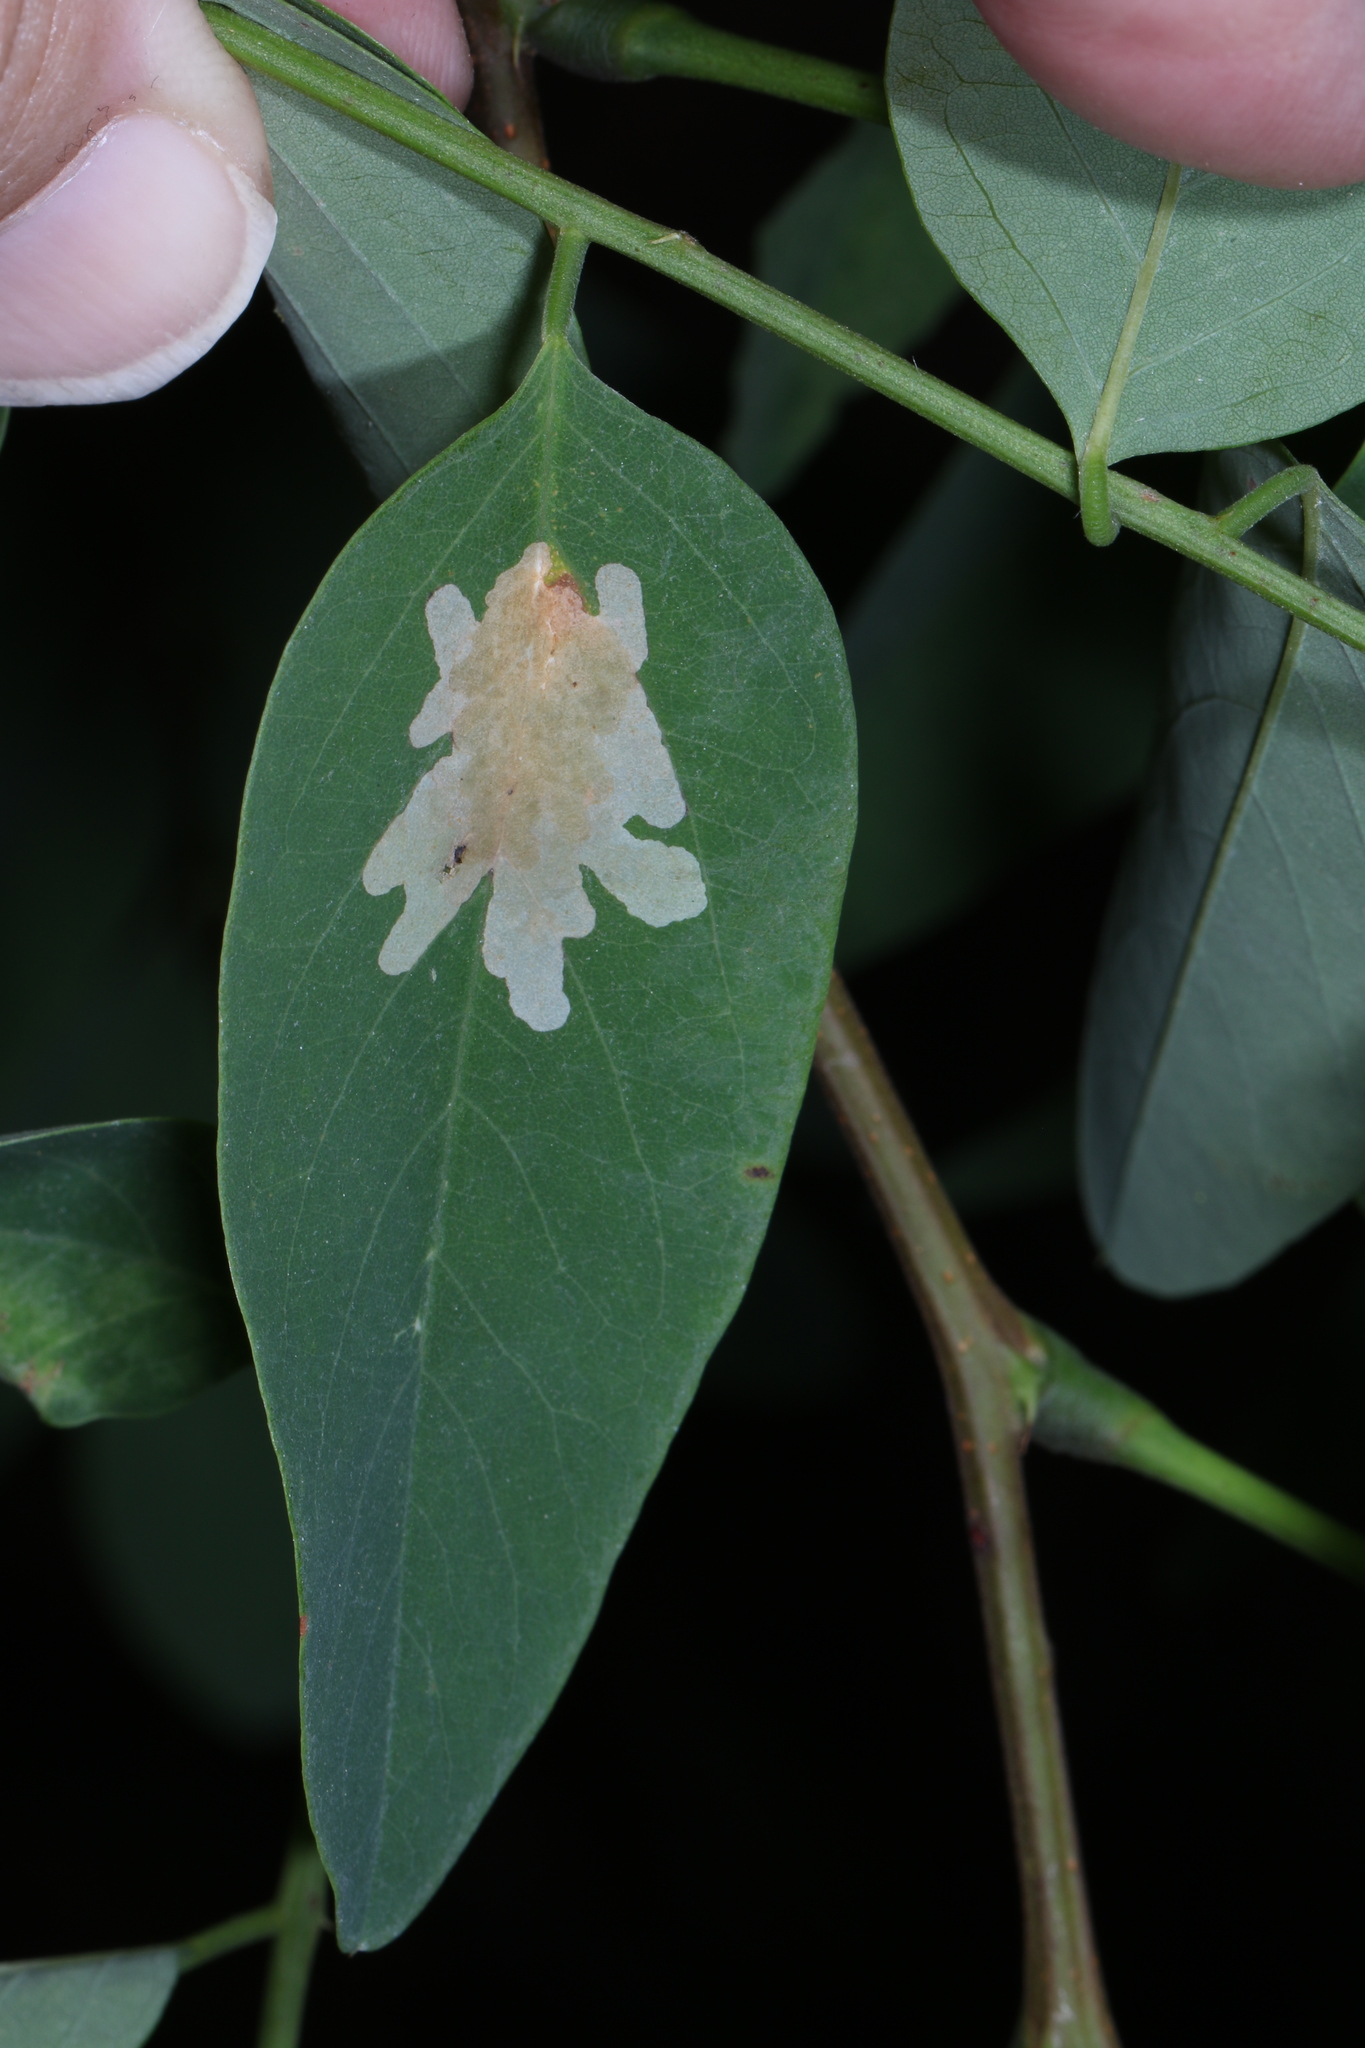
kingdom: Animalia
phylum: Arthropoda
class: Insecta
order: Lepidoptera
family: Gracillariidae
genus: Parectopa
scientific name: Parectopa robiniella
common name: Locust digitate leafminer
